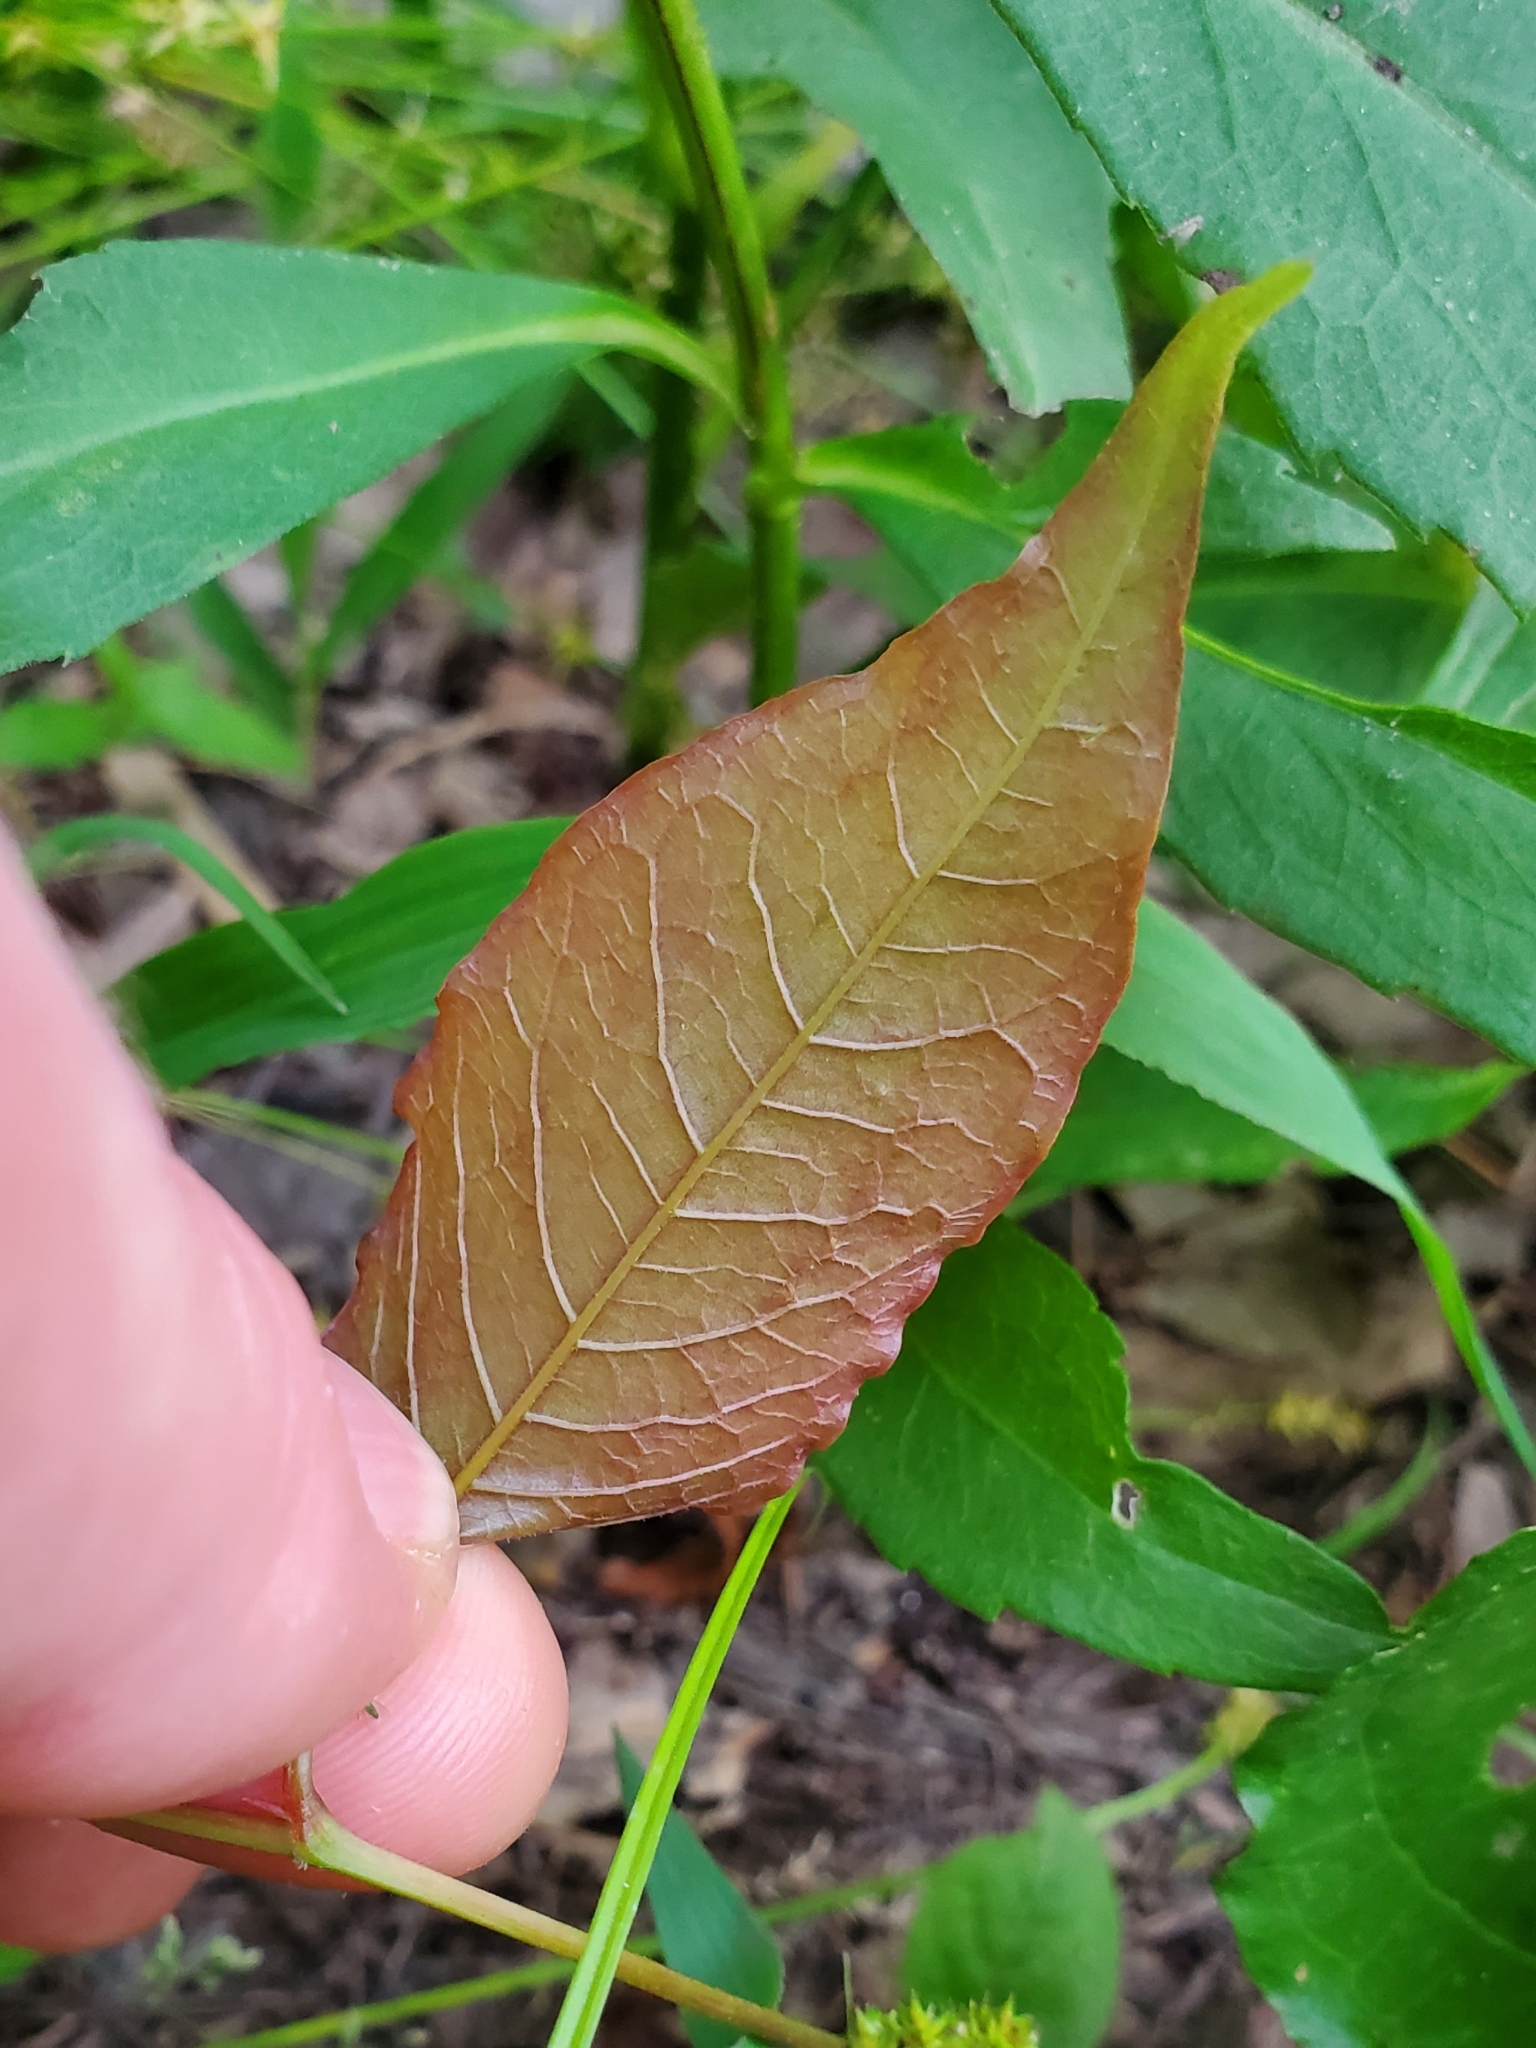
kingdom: Plantae
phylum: Tracheophyta
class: Magnoliopsida
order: Caryophyllales
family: Polygonaceae
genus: Brunnichia
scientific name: Brunnichia ovata
